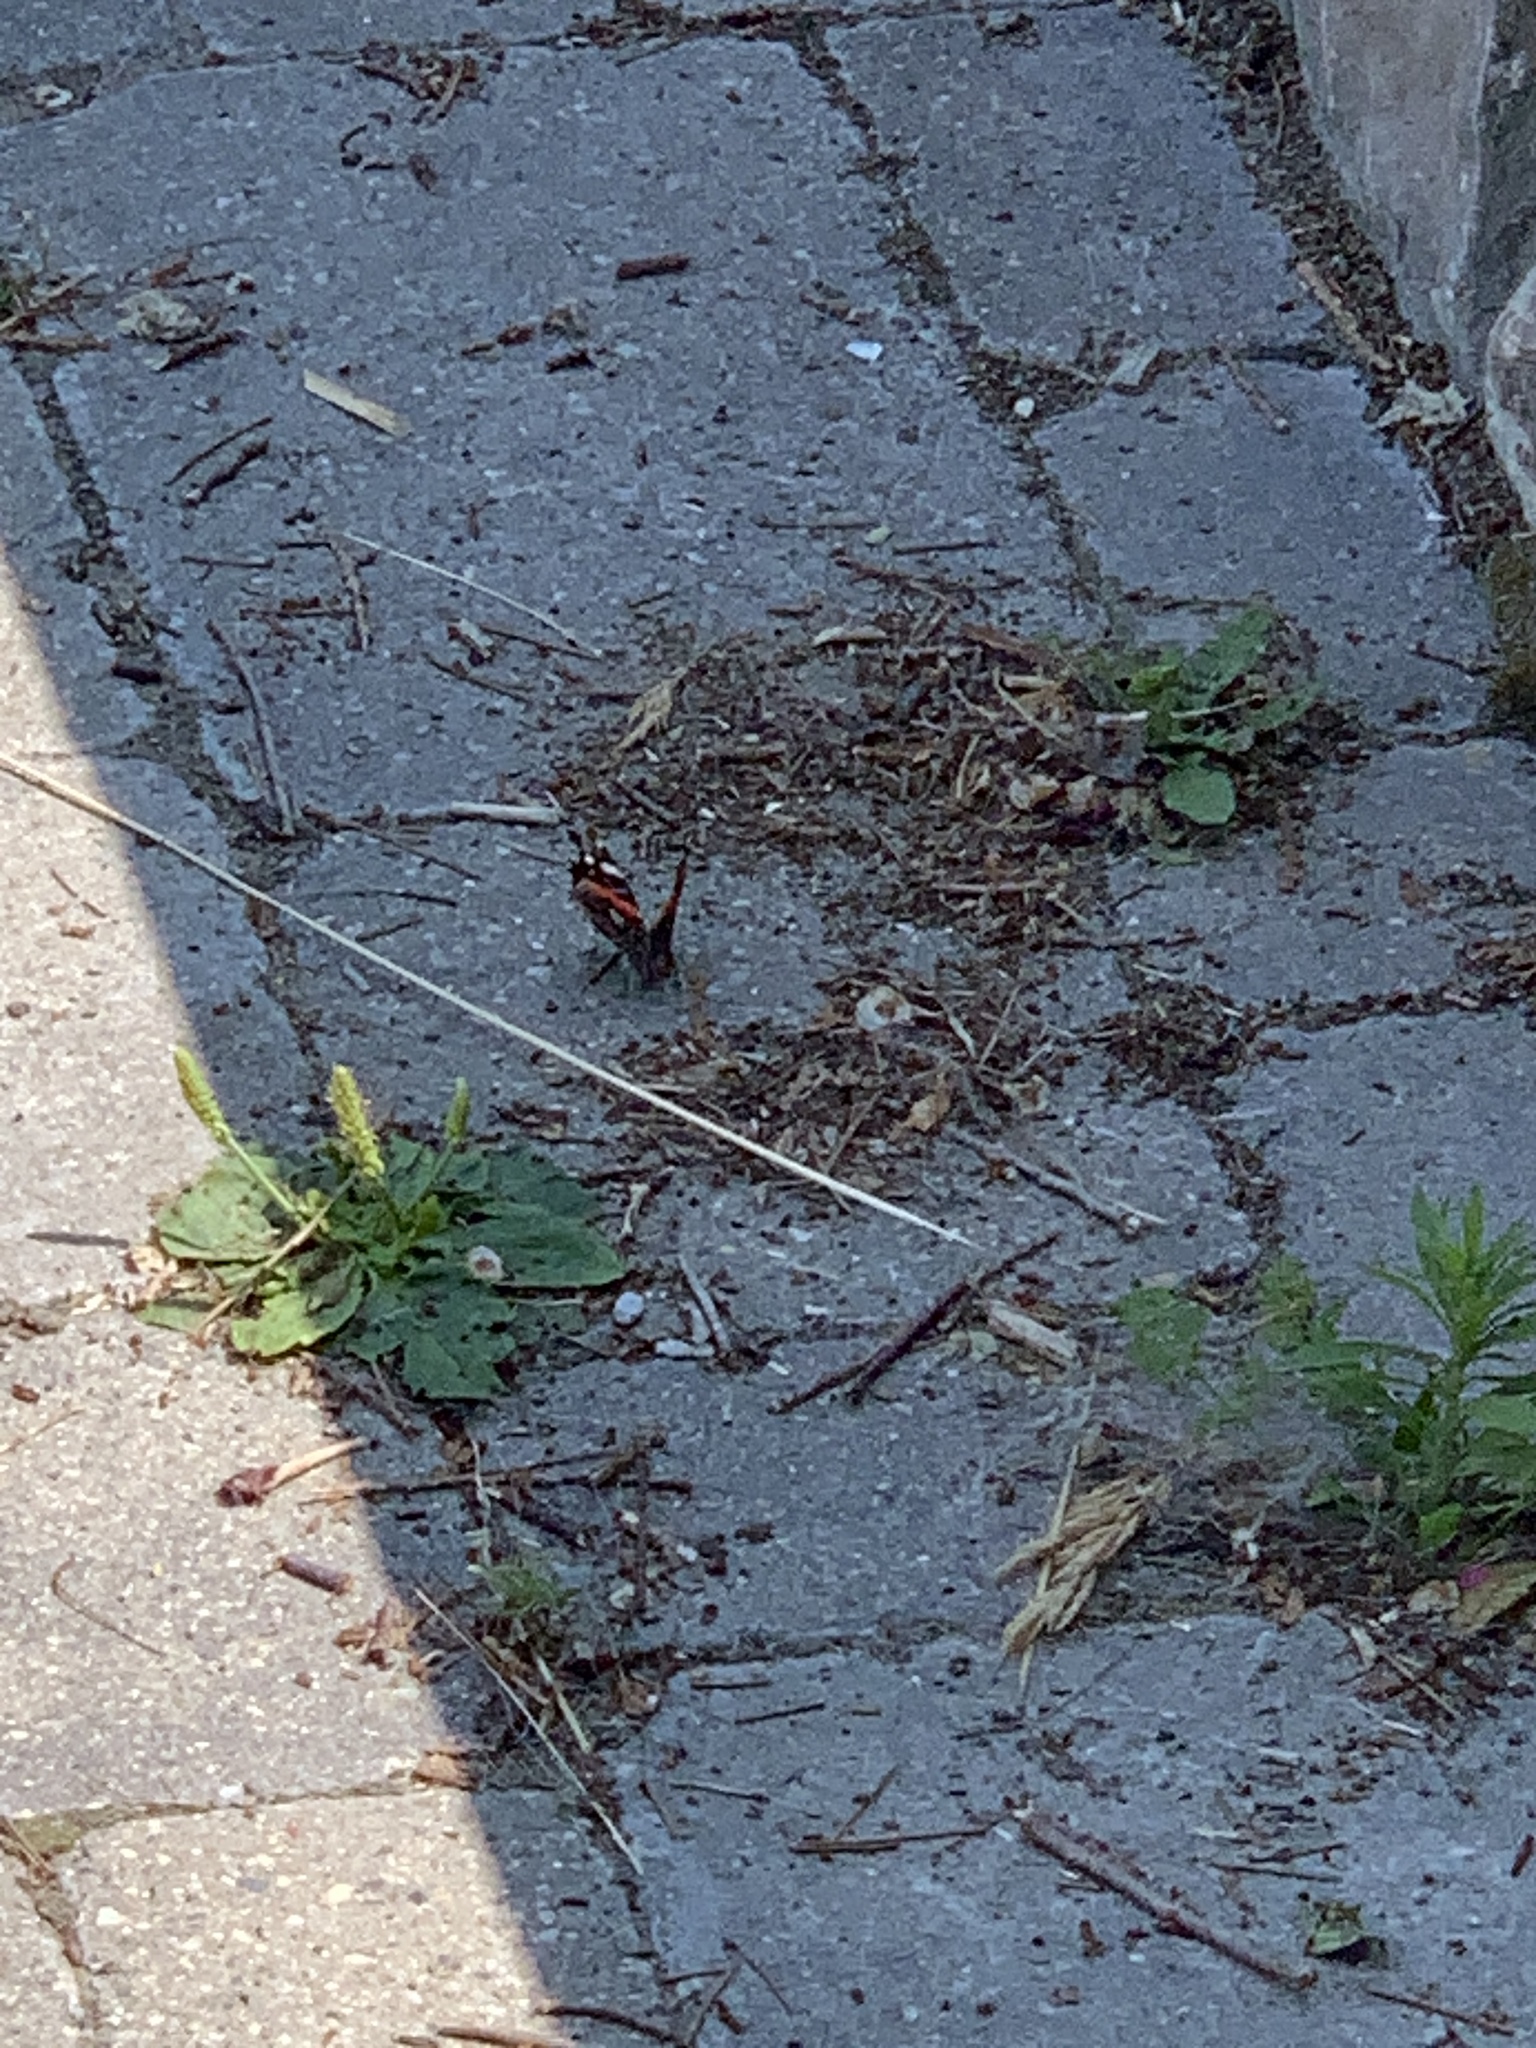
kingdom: Animalia
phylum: Arthropoda
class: Insecta
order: Lepidoptera
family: Nymphalidae
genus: Vanessa
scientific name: Vanessa atalanta
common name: Red admiral
